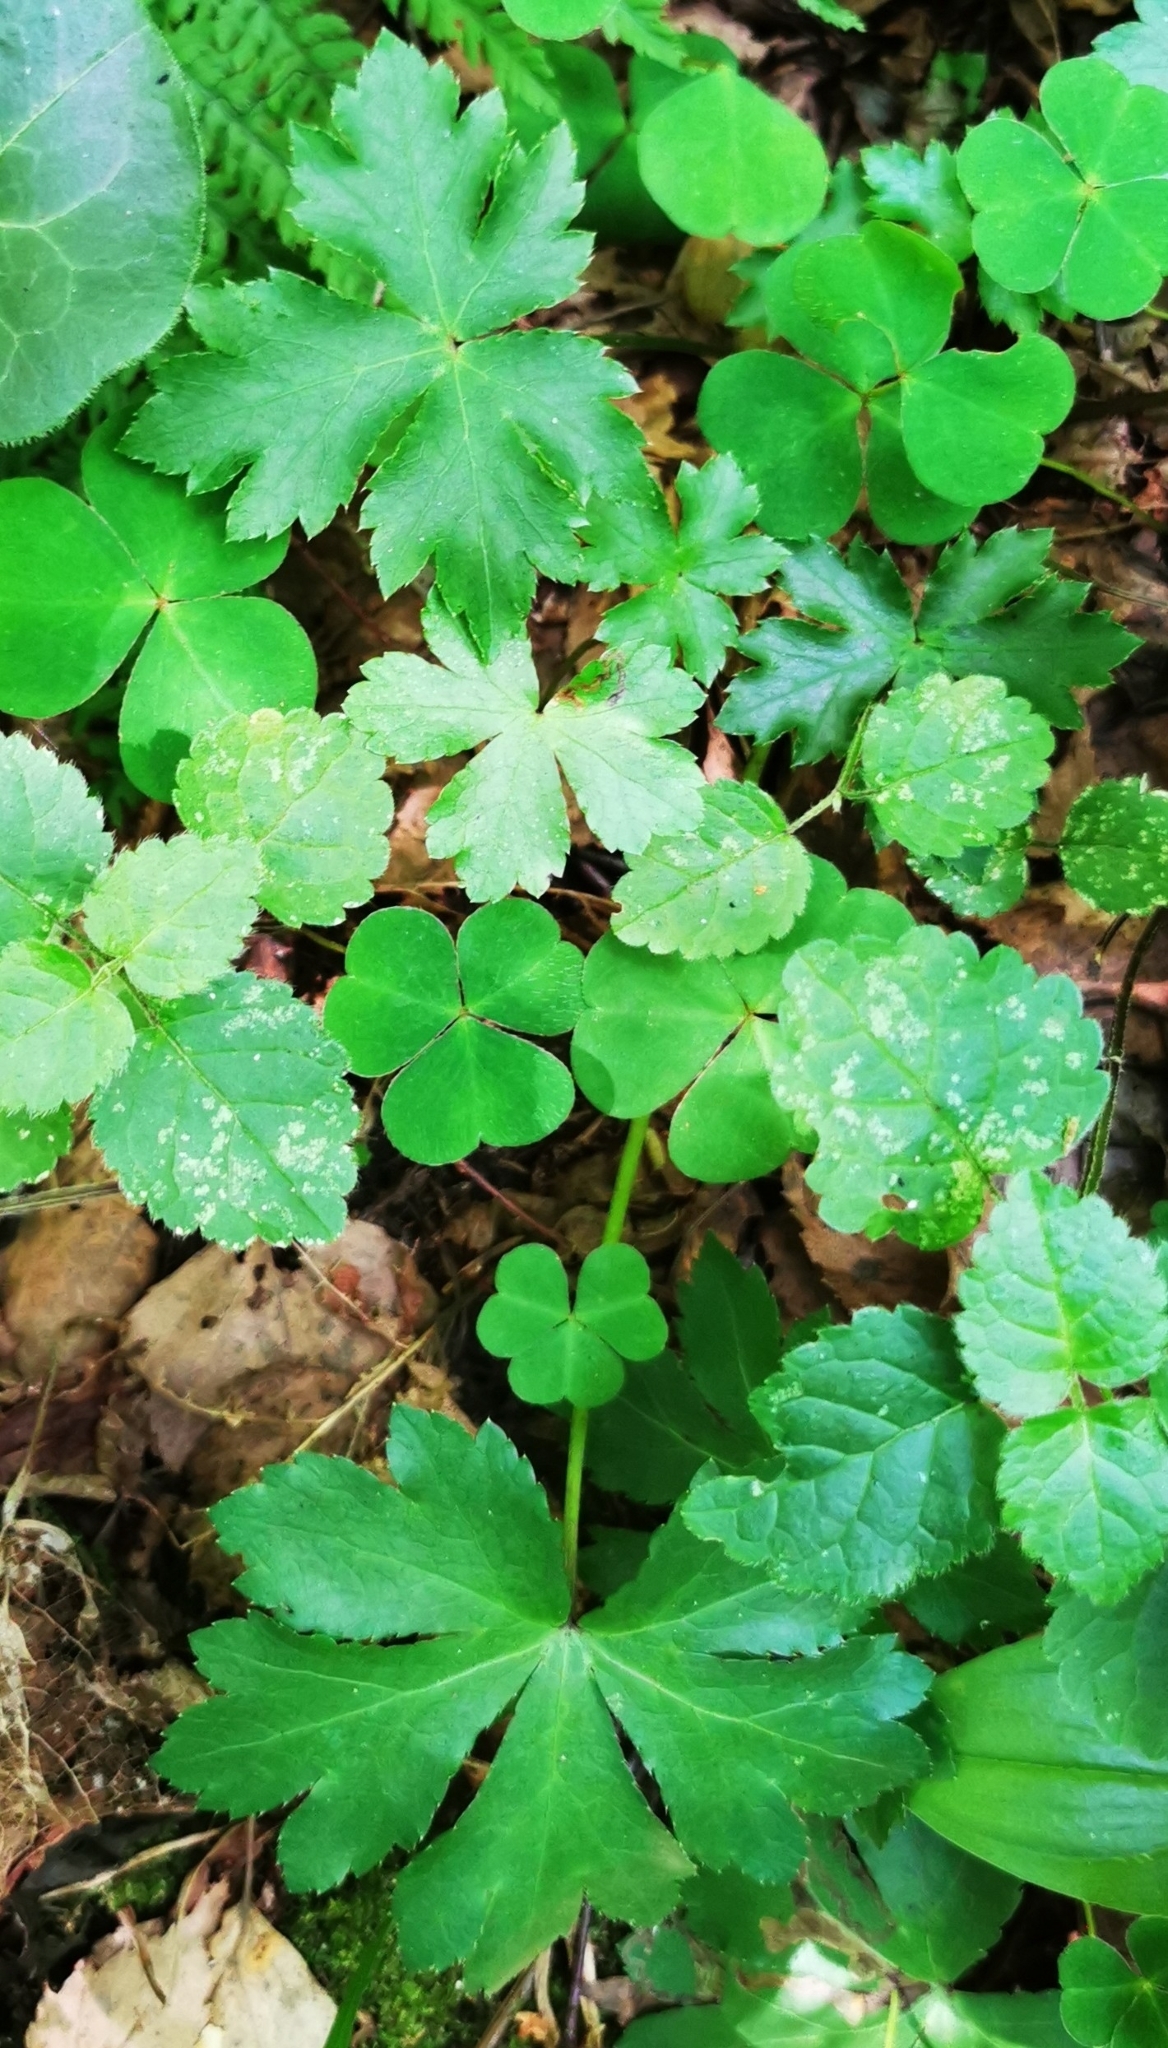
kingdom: Plantae
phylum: Tracheophyta
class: Magnoliopsida
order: Apiales
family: Apiaceae
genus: Sanicula
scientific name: Sanicula europaea
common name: Sanicle
